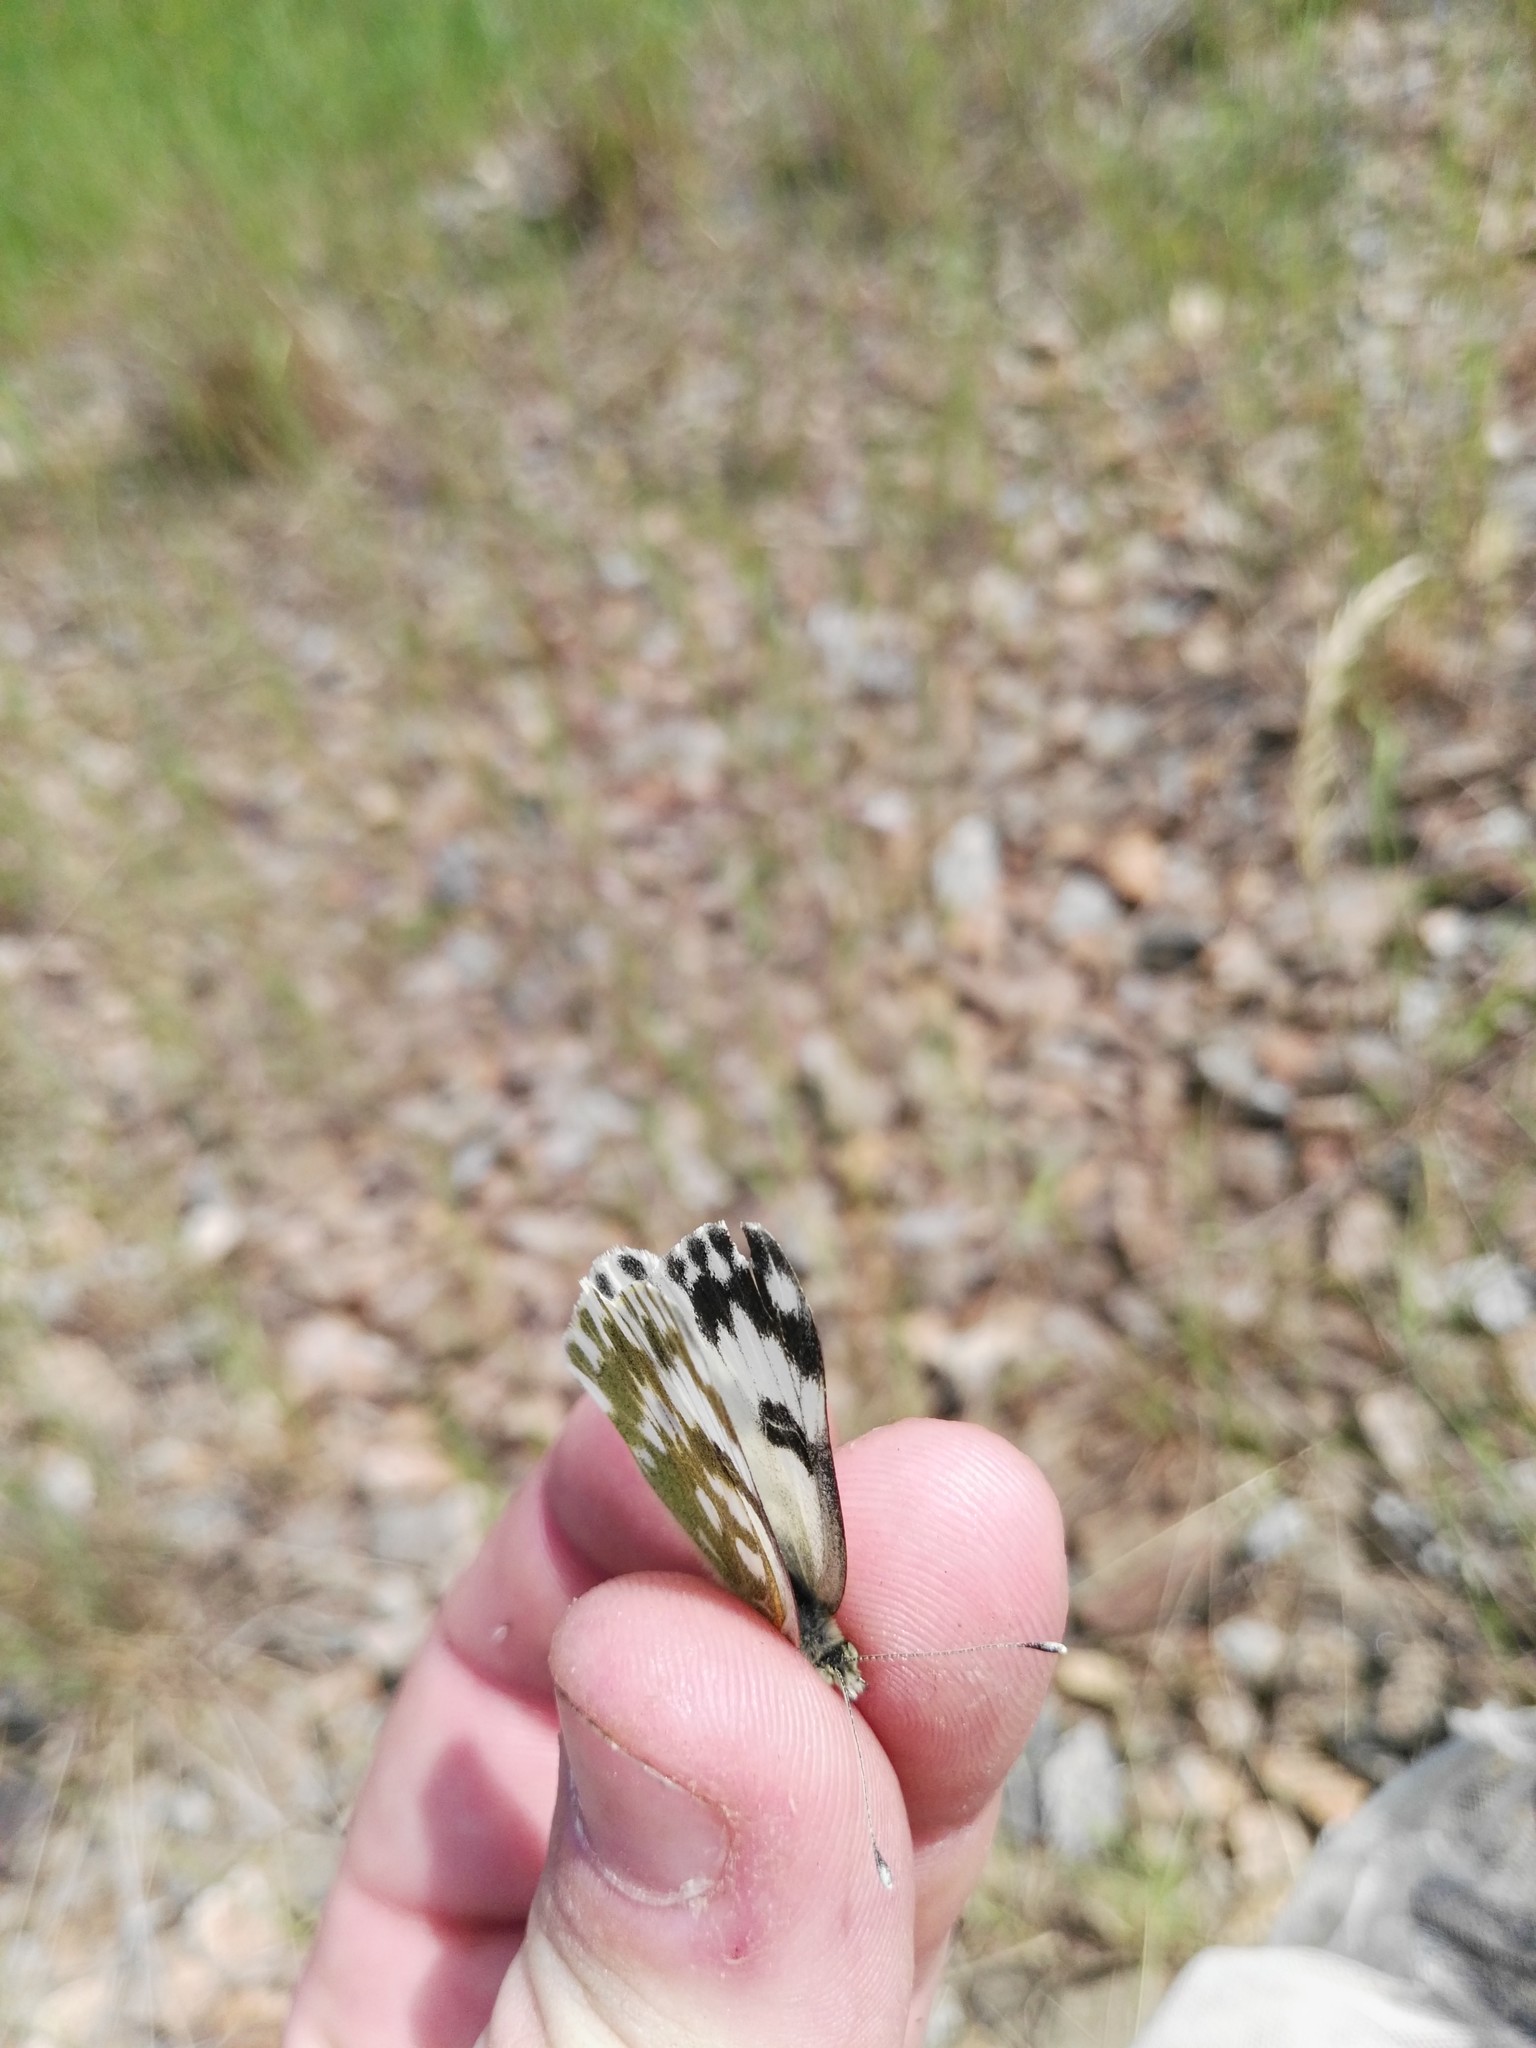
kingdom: Animalia
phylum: Arthropoda
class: Insecta
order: Lepidoptera
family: Pieridae
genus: Pontia
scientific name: Pontia edusa
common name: Eastern bath white
